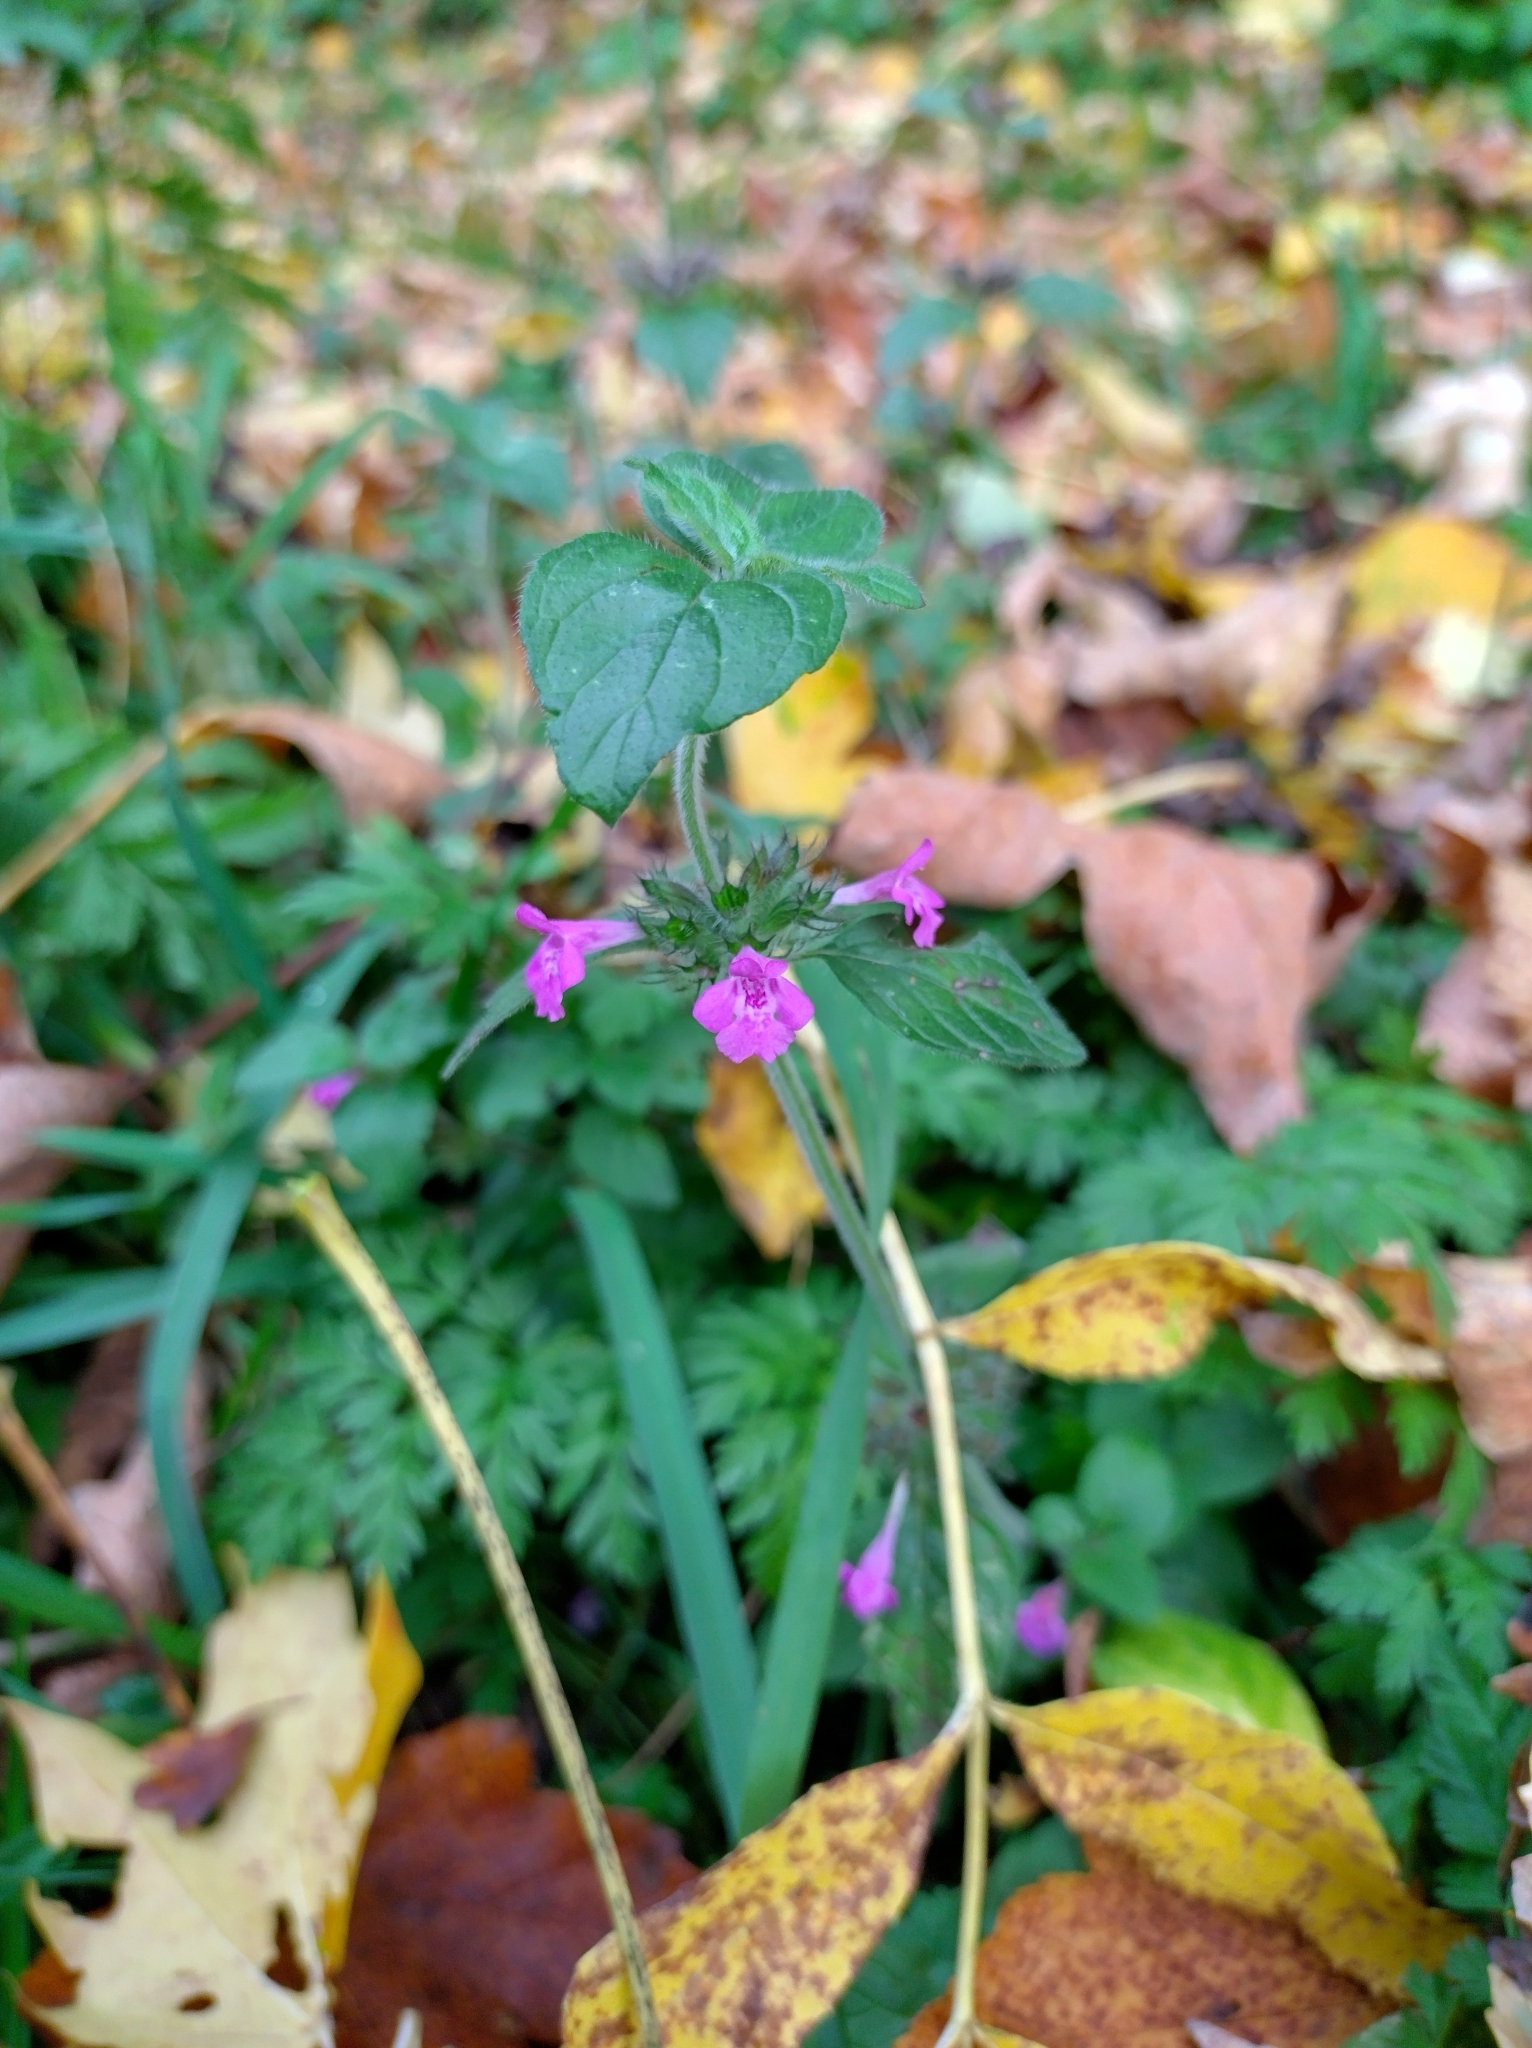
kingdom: Plantae
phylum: Tracheophyta
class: Magnoliopsida
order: Lamiales
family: Lamiaceae
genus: Clinopodium
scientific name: Clinopodium vulgare
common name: Wild basil
